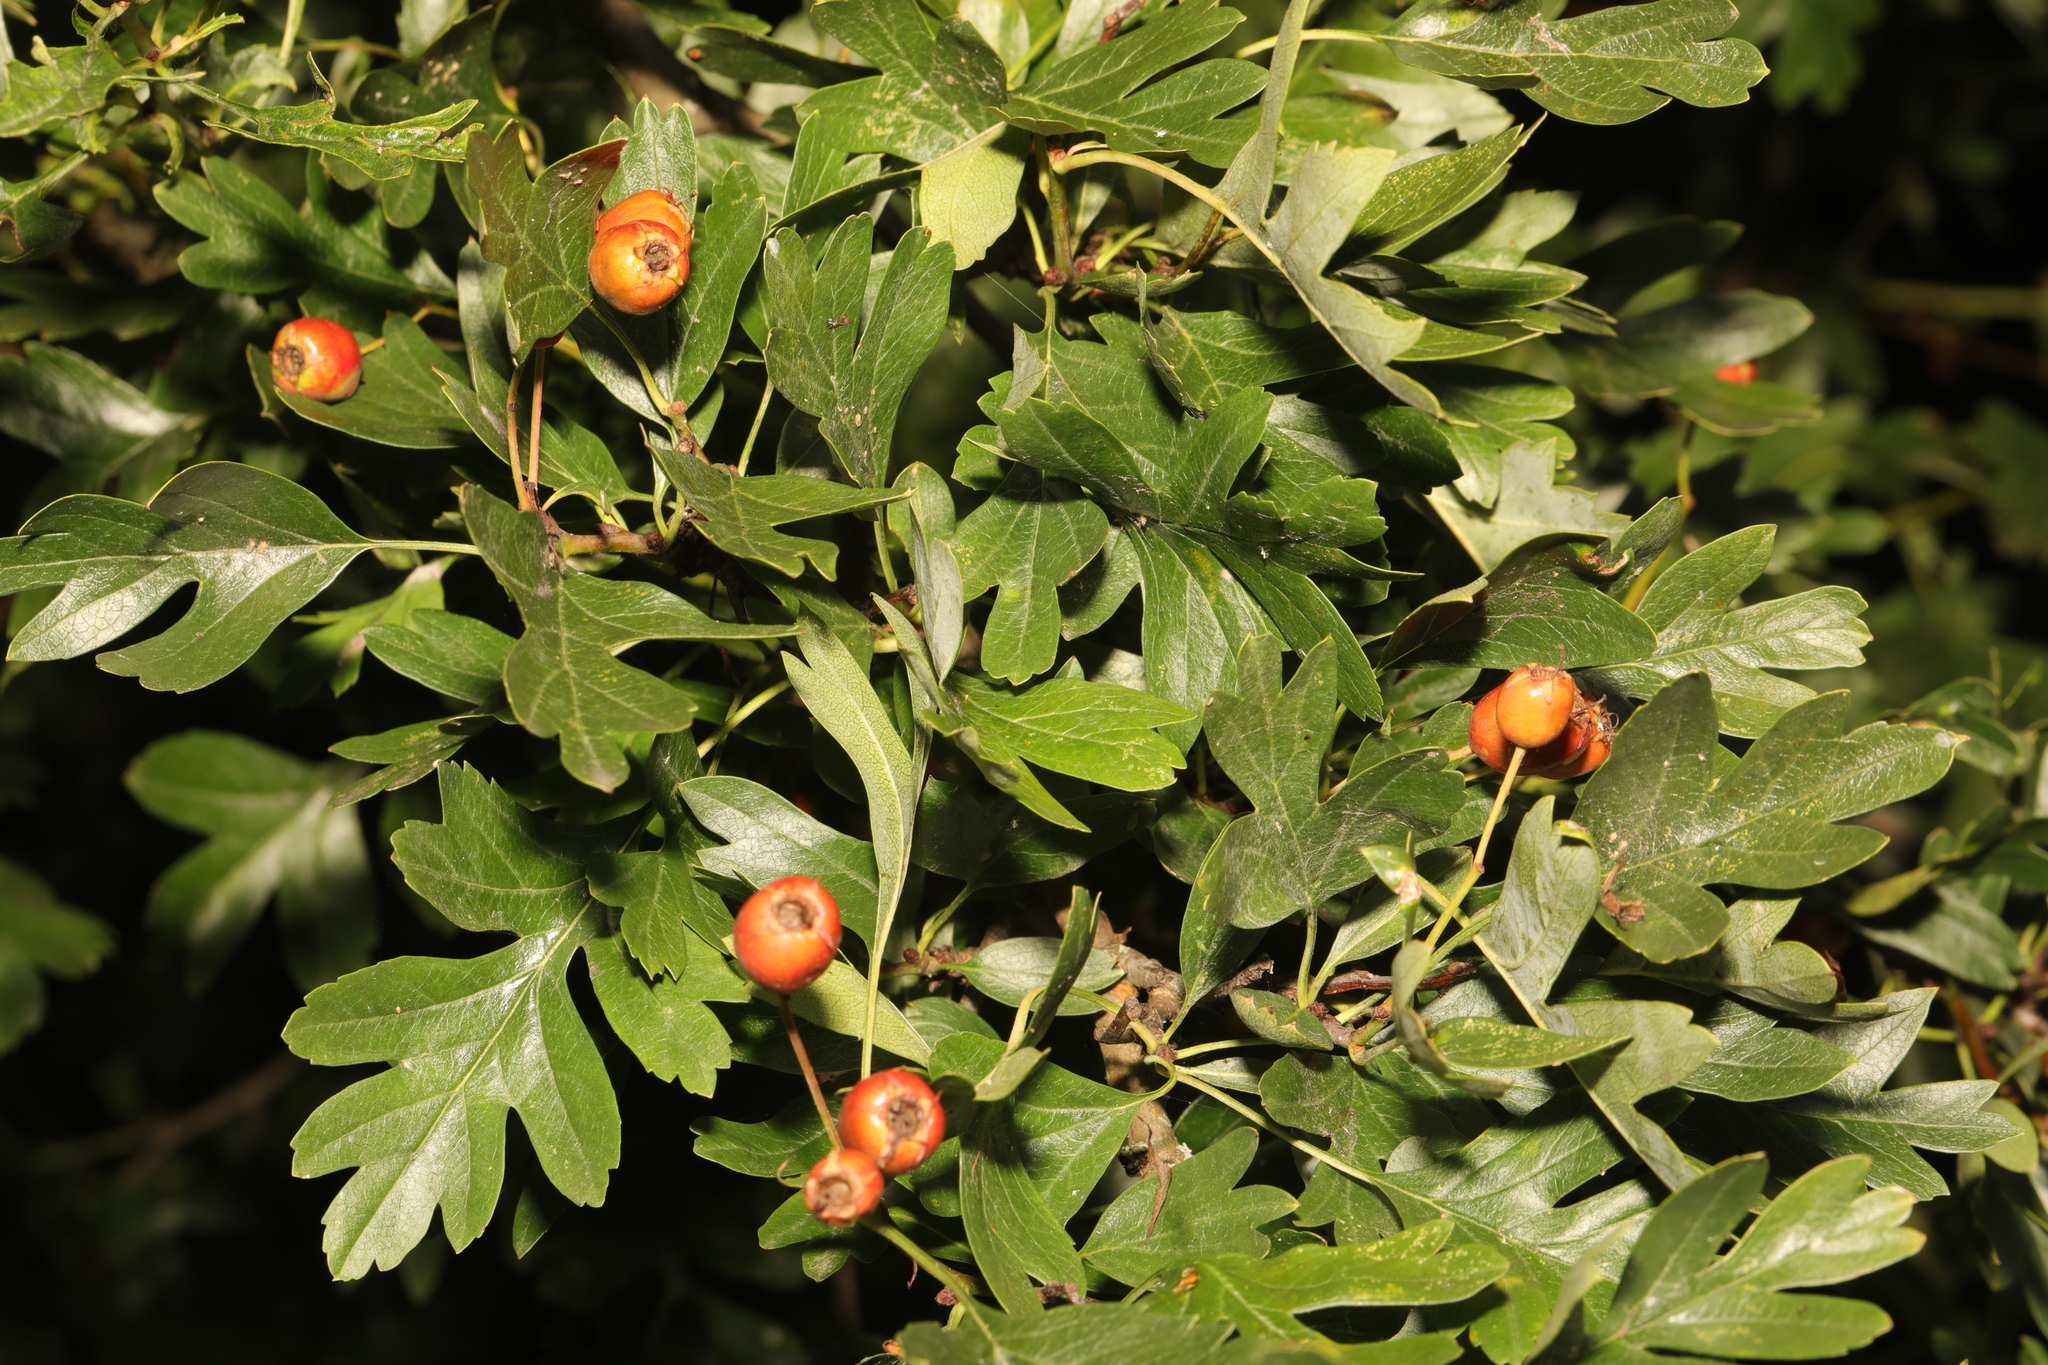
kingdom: Plantae
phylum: Tracheophyta
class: Magnoliopsida
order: Rosales
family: Rosaceae
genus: Crataegus
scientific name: Crataegus monogyna
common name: Hawthorn
